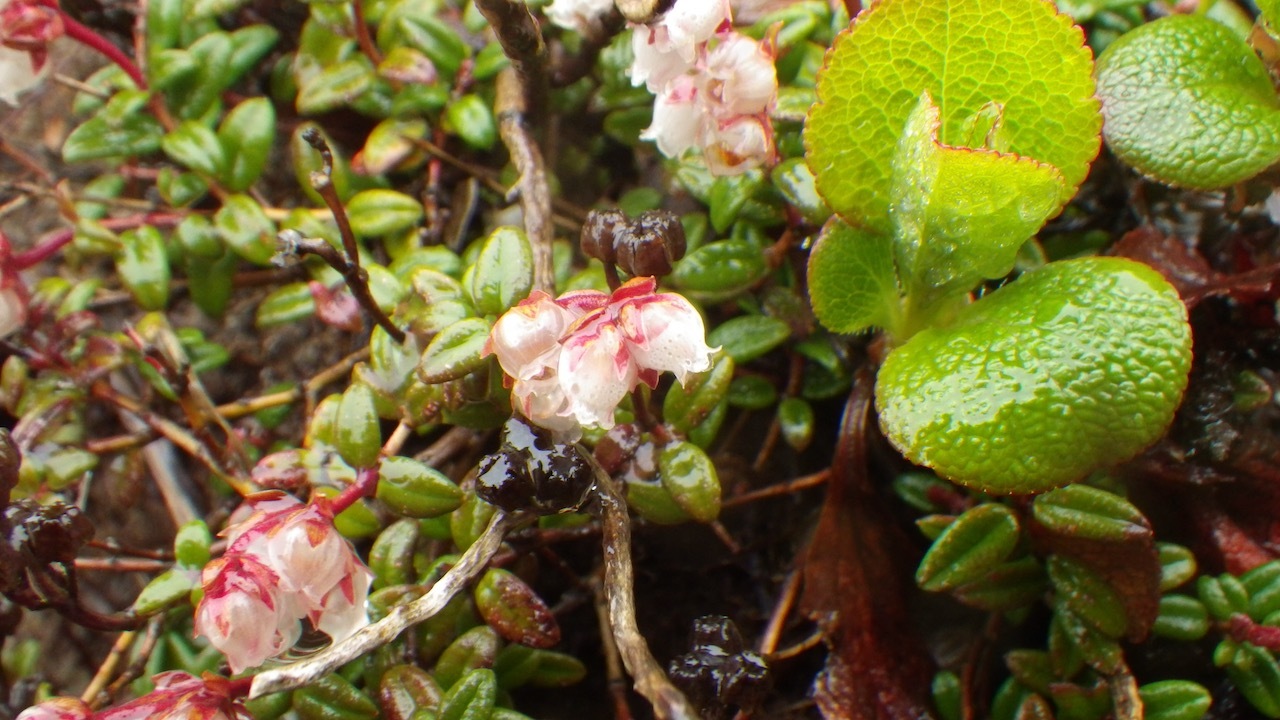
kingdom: Plantae
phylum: Tracheophyta
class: Magnoliopsida
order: Ericales
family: Ericaceae
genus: Vaccinium
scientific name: Vaccinium vitis-idaea
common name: Cowberry
